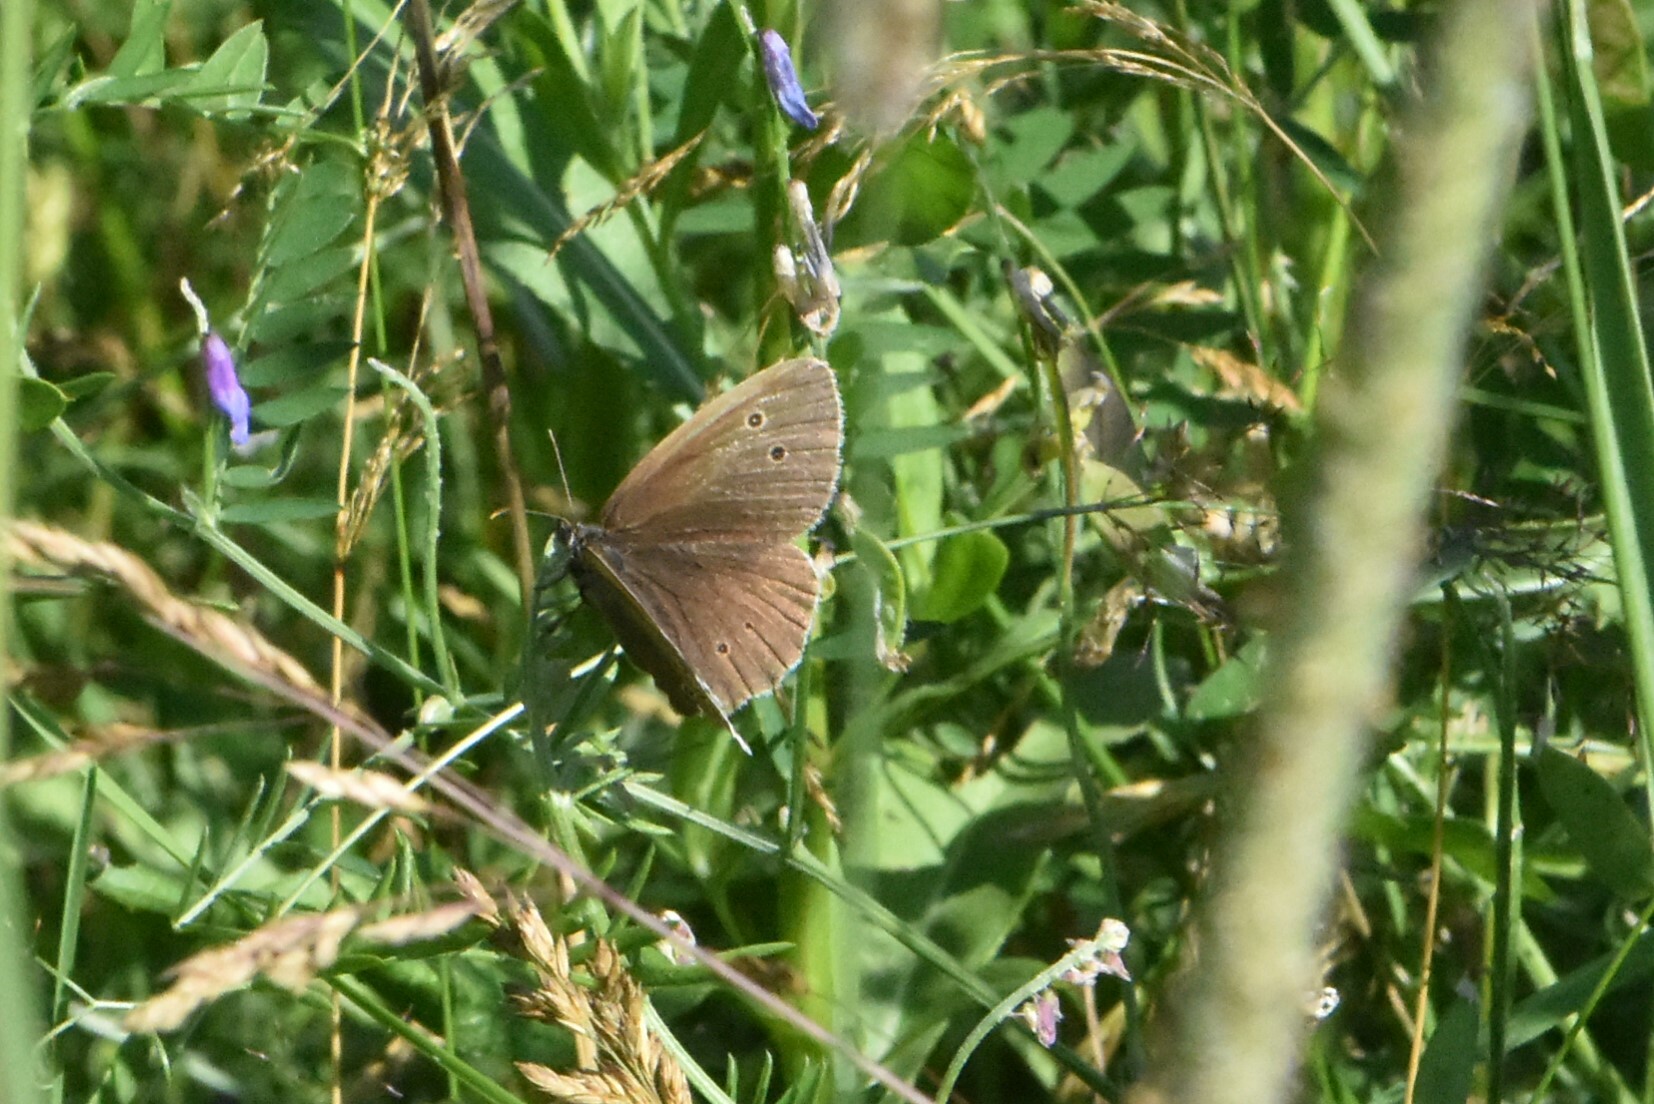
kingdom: Animalia
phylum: Arthropoda
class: Insecta
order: Lepidoptera
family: Nymphalidae
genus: Aphantopus
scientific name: Aphantopus hyperantus
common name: Ringlet
